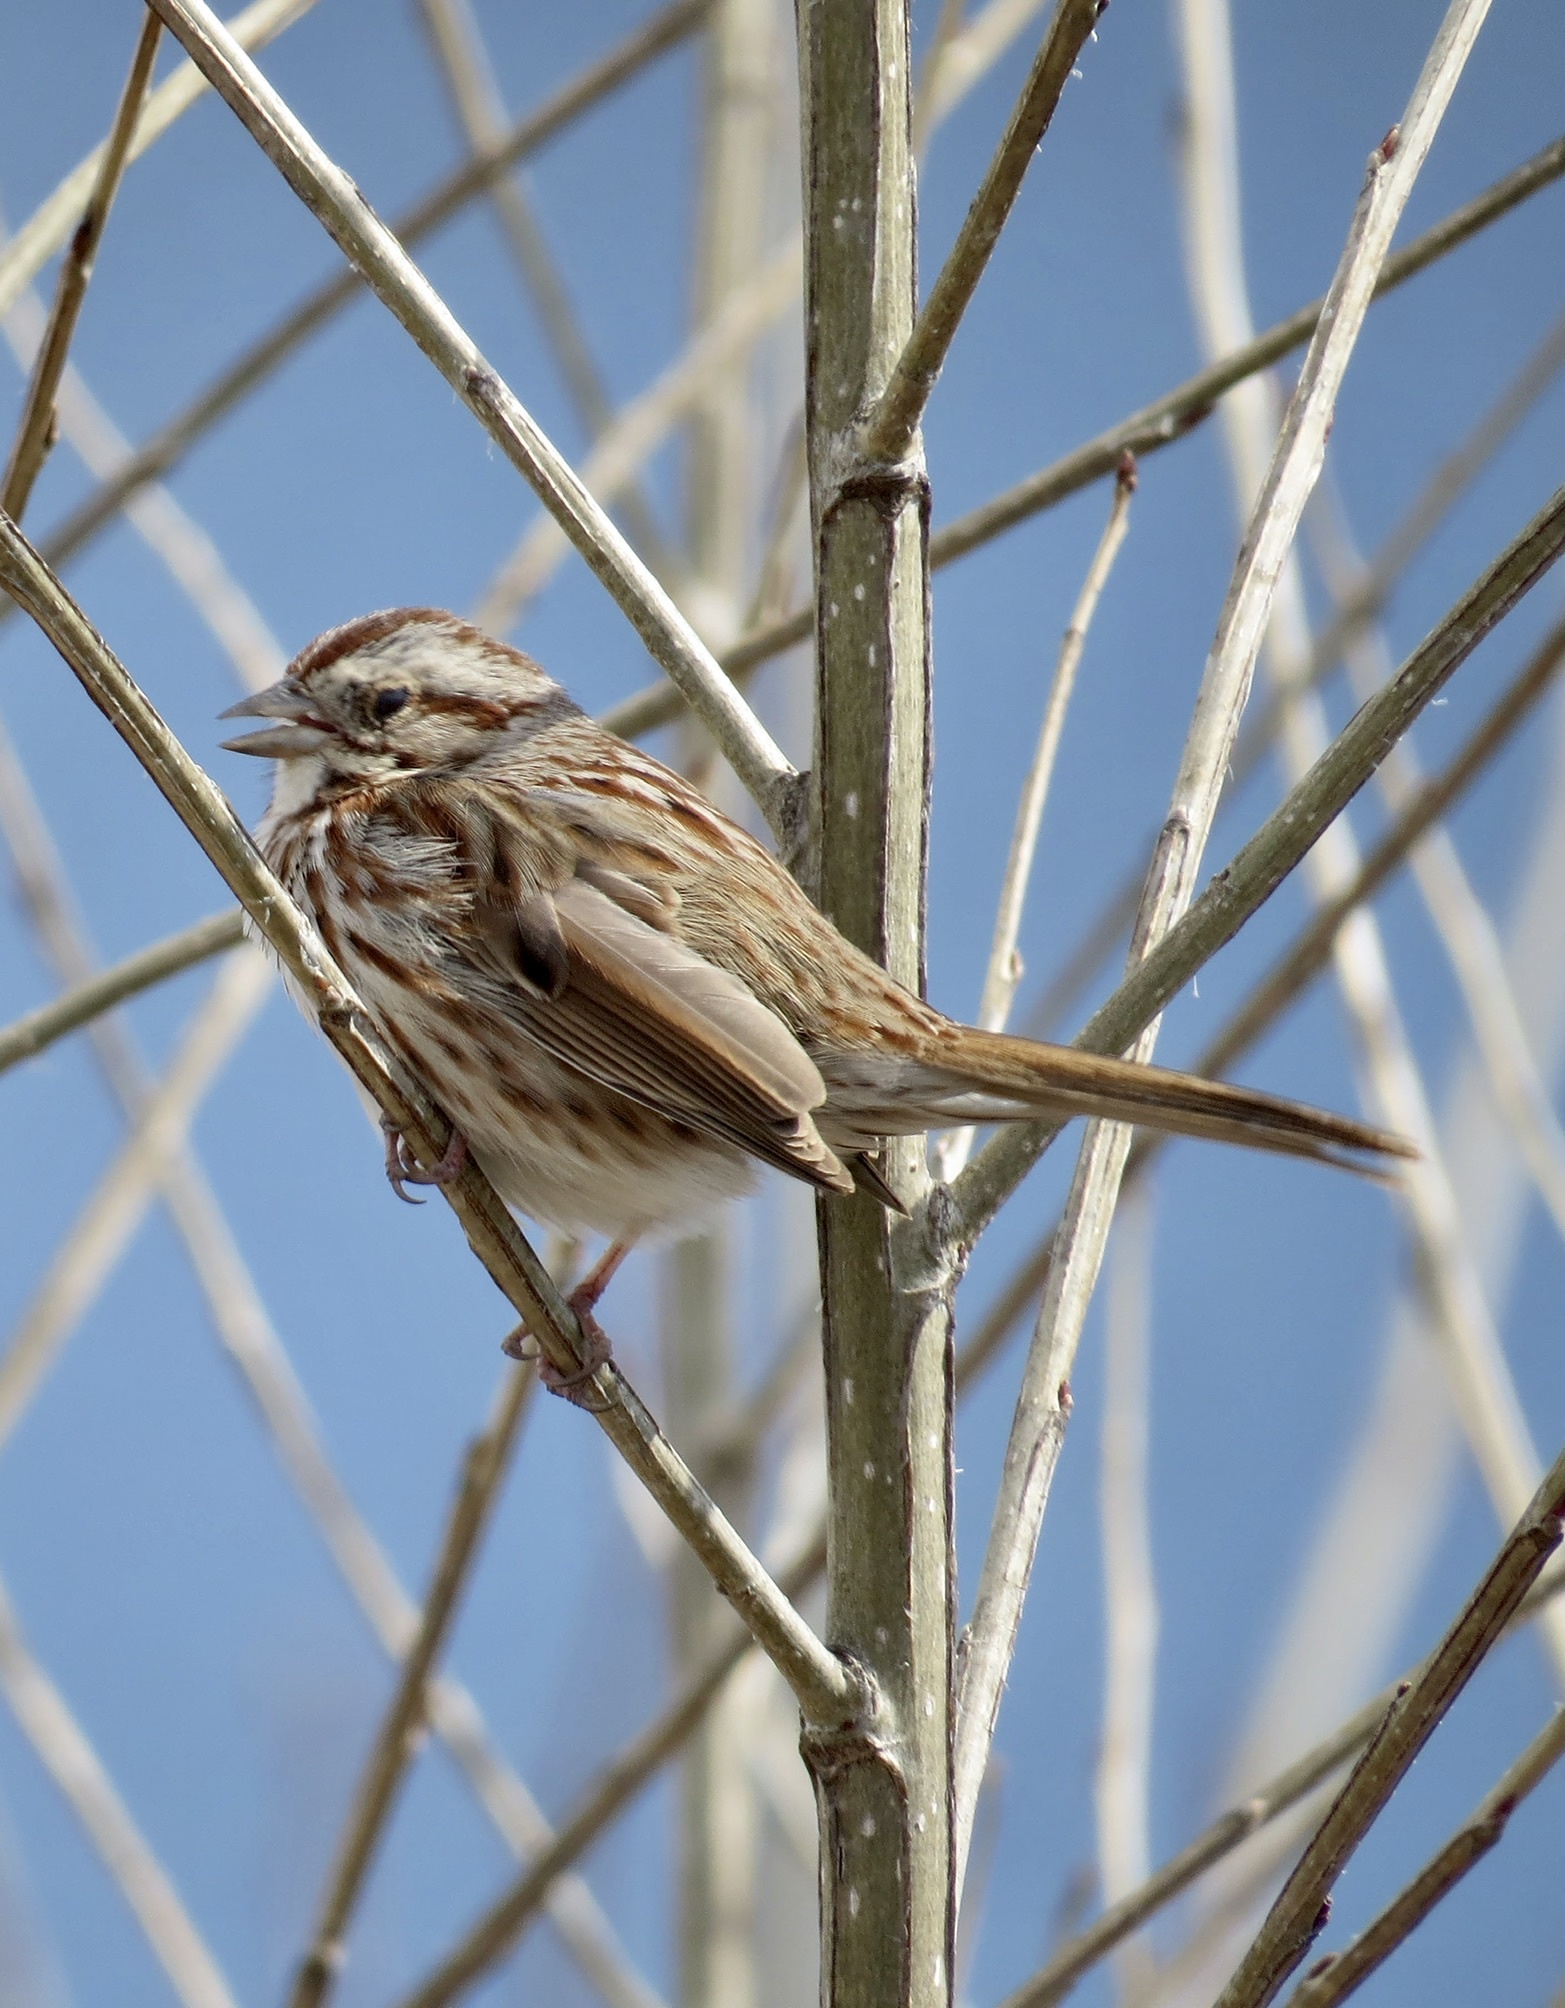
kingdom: Animalia
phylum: Chordata
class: Aves
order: Passeriformes
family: Passerellidae
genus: Melospiza
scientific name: Melospiza melodia
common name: Song sparrow
